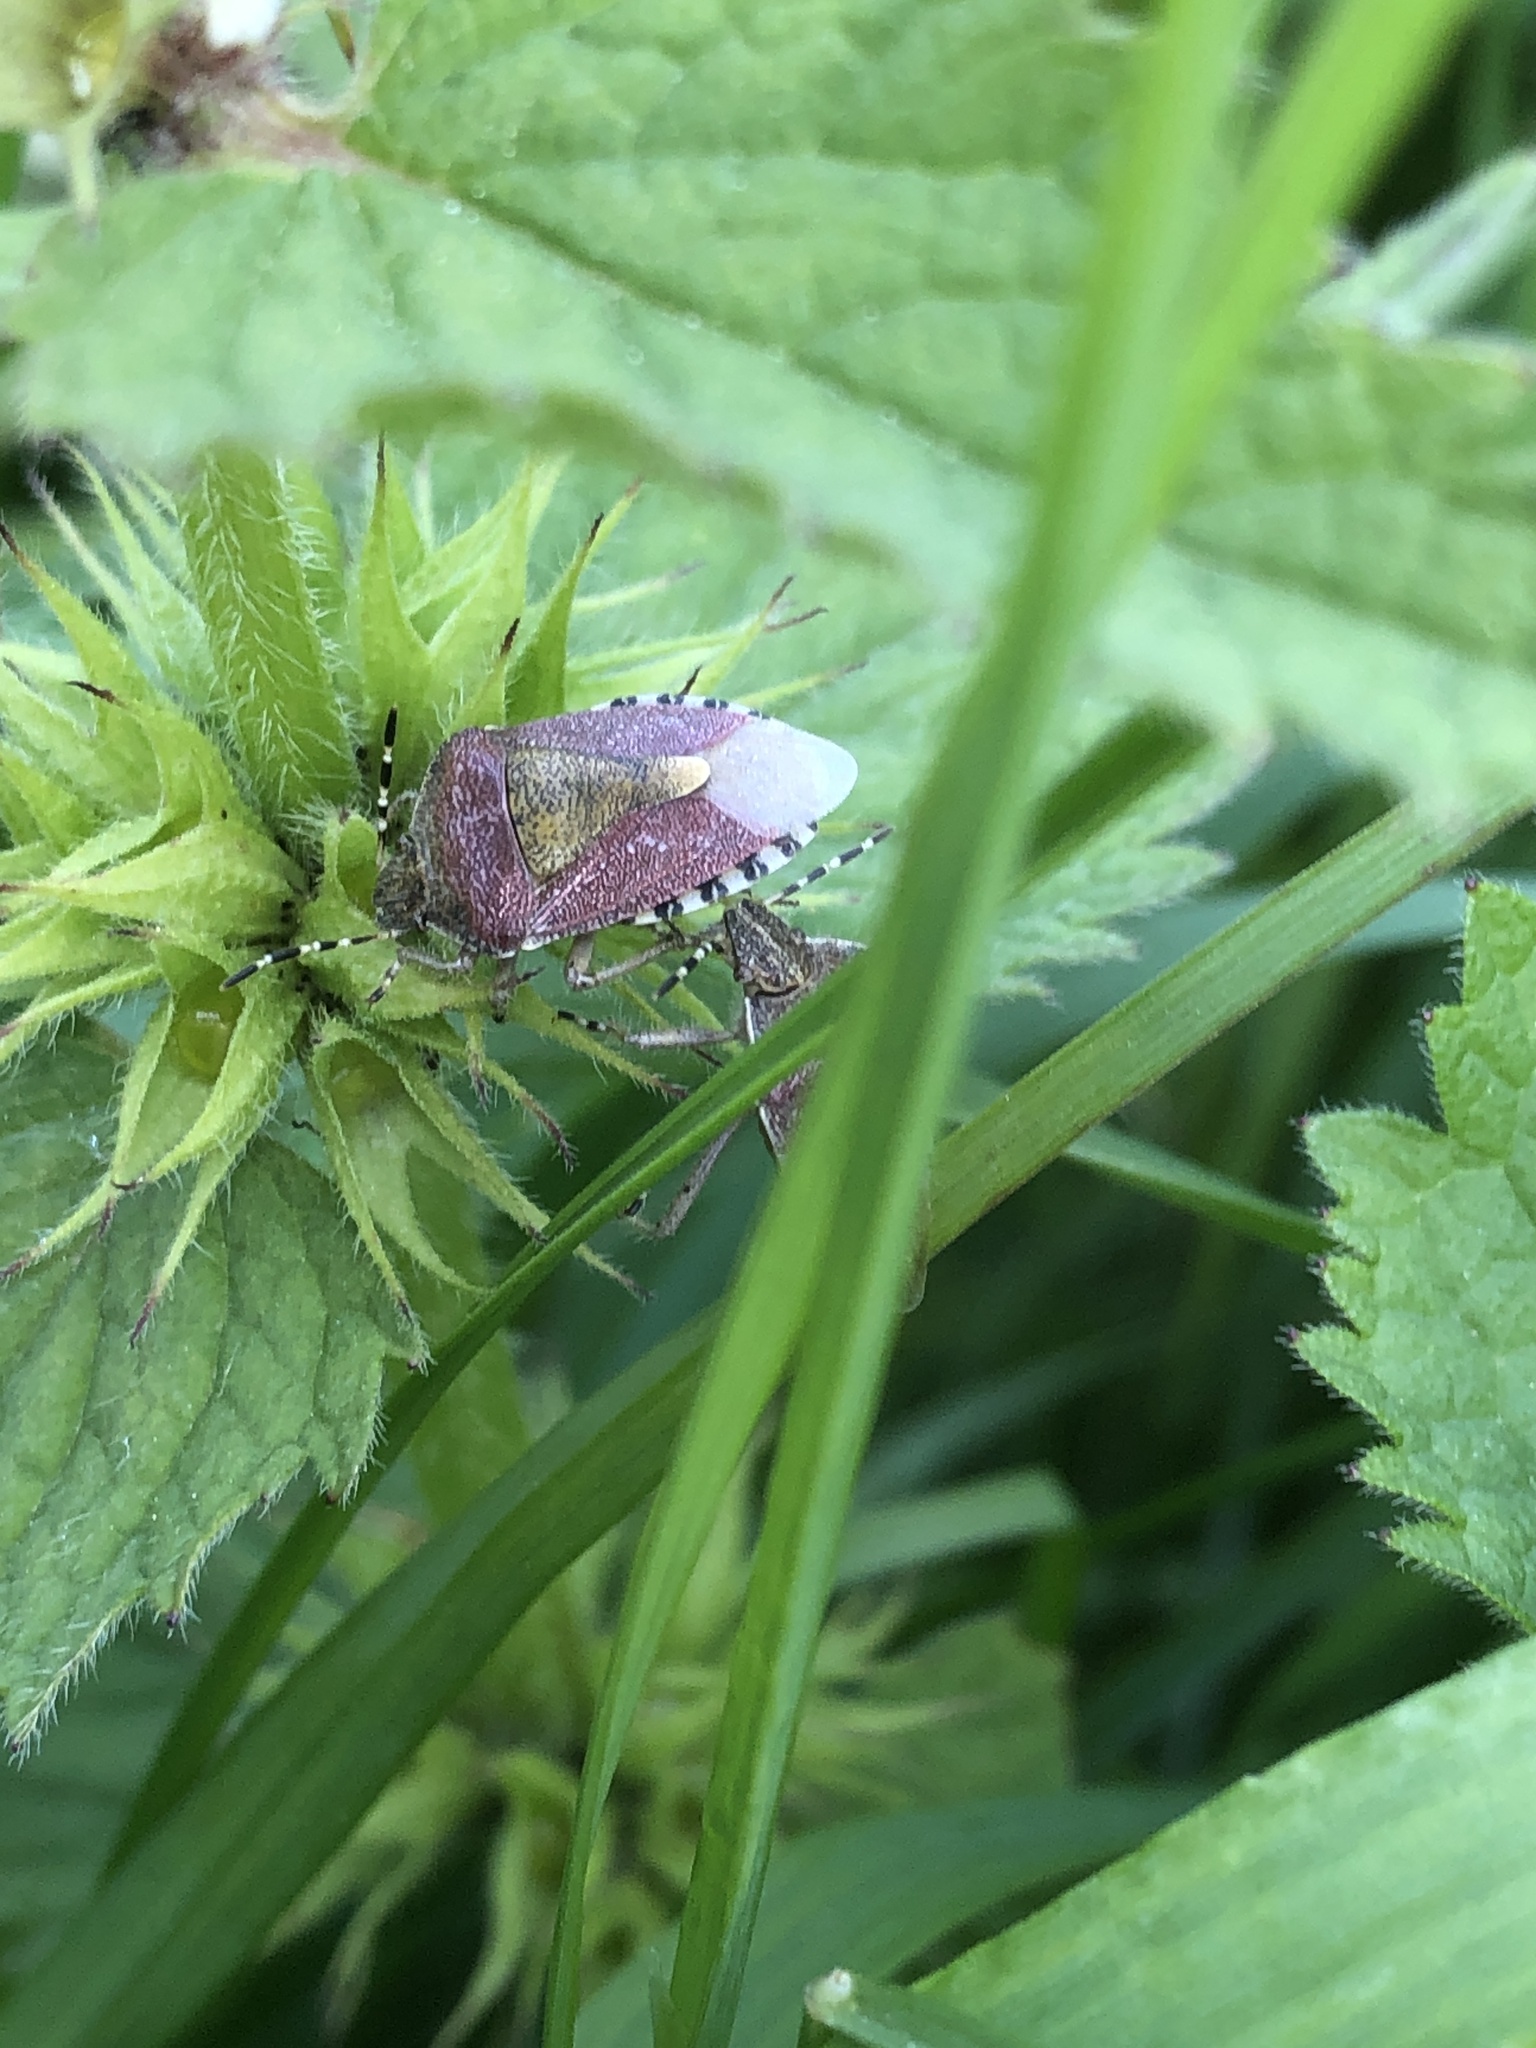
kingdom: Animalia
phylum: Arthropoda
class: Insecta
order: Hemiptera
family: Pentatomidae
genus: Dolycoris
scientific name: Dolycoris baccarum
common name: Sloe bug
